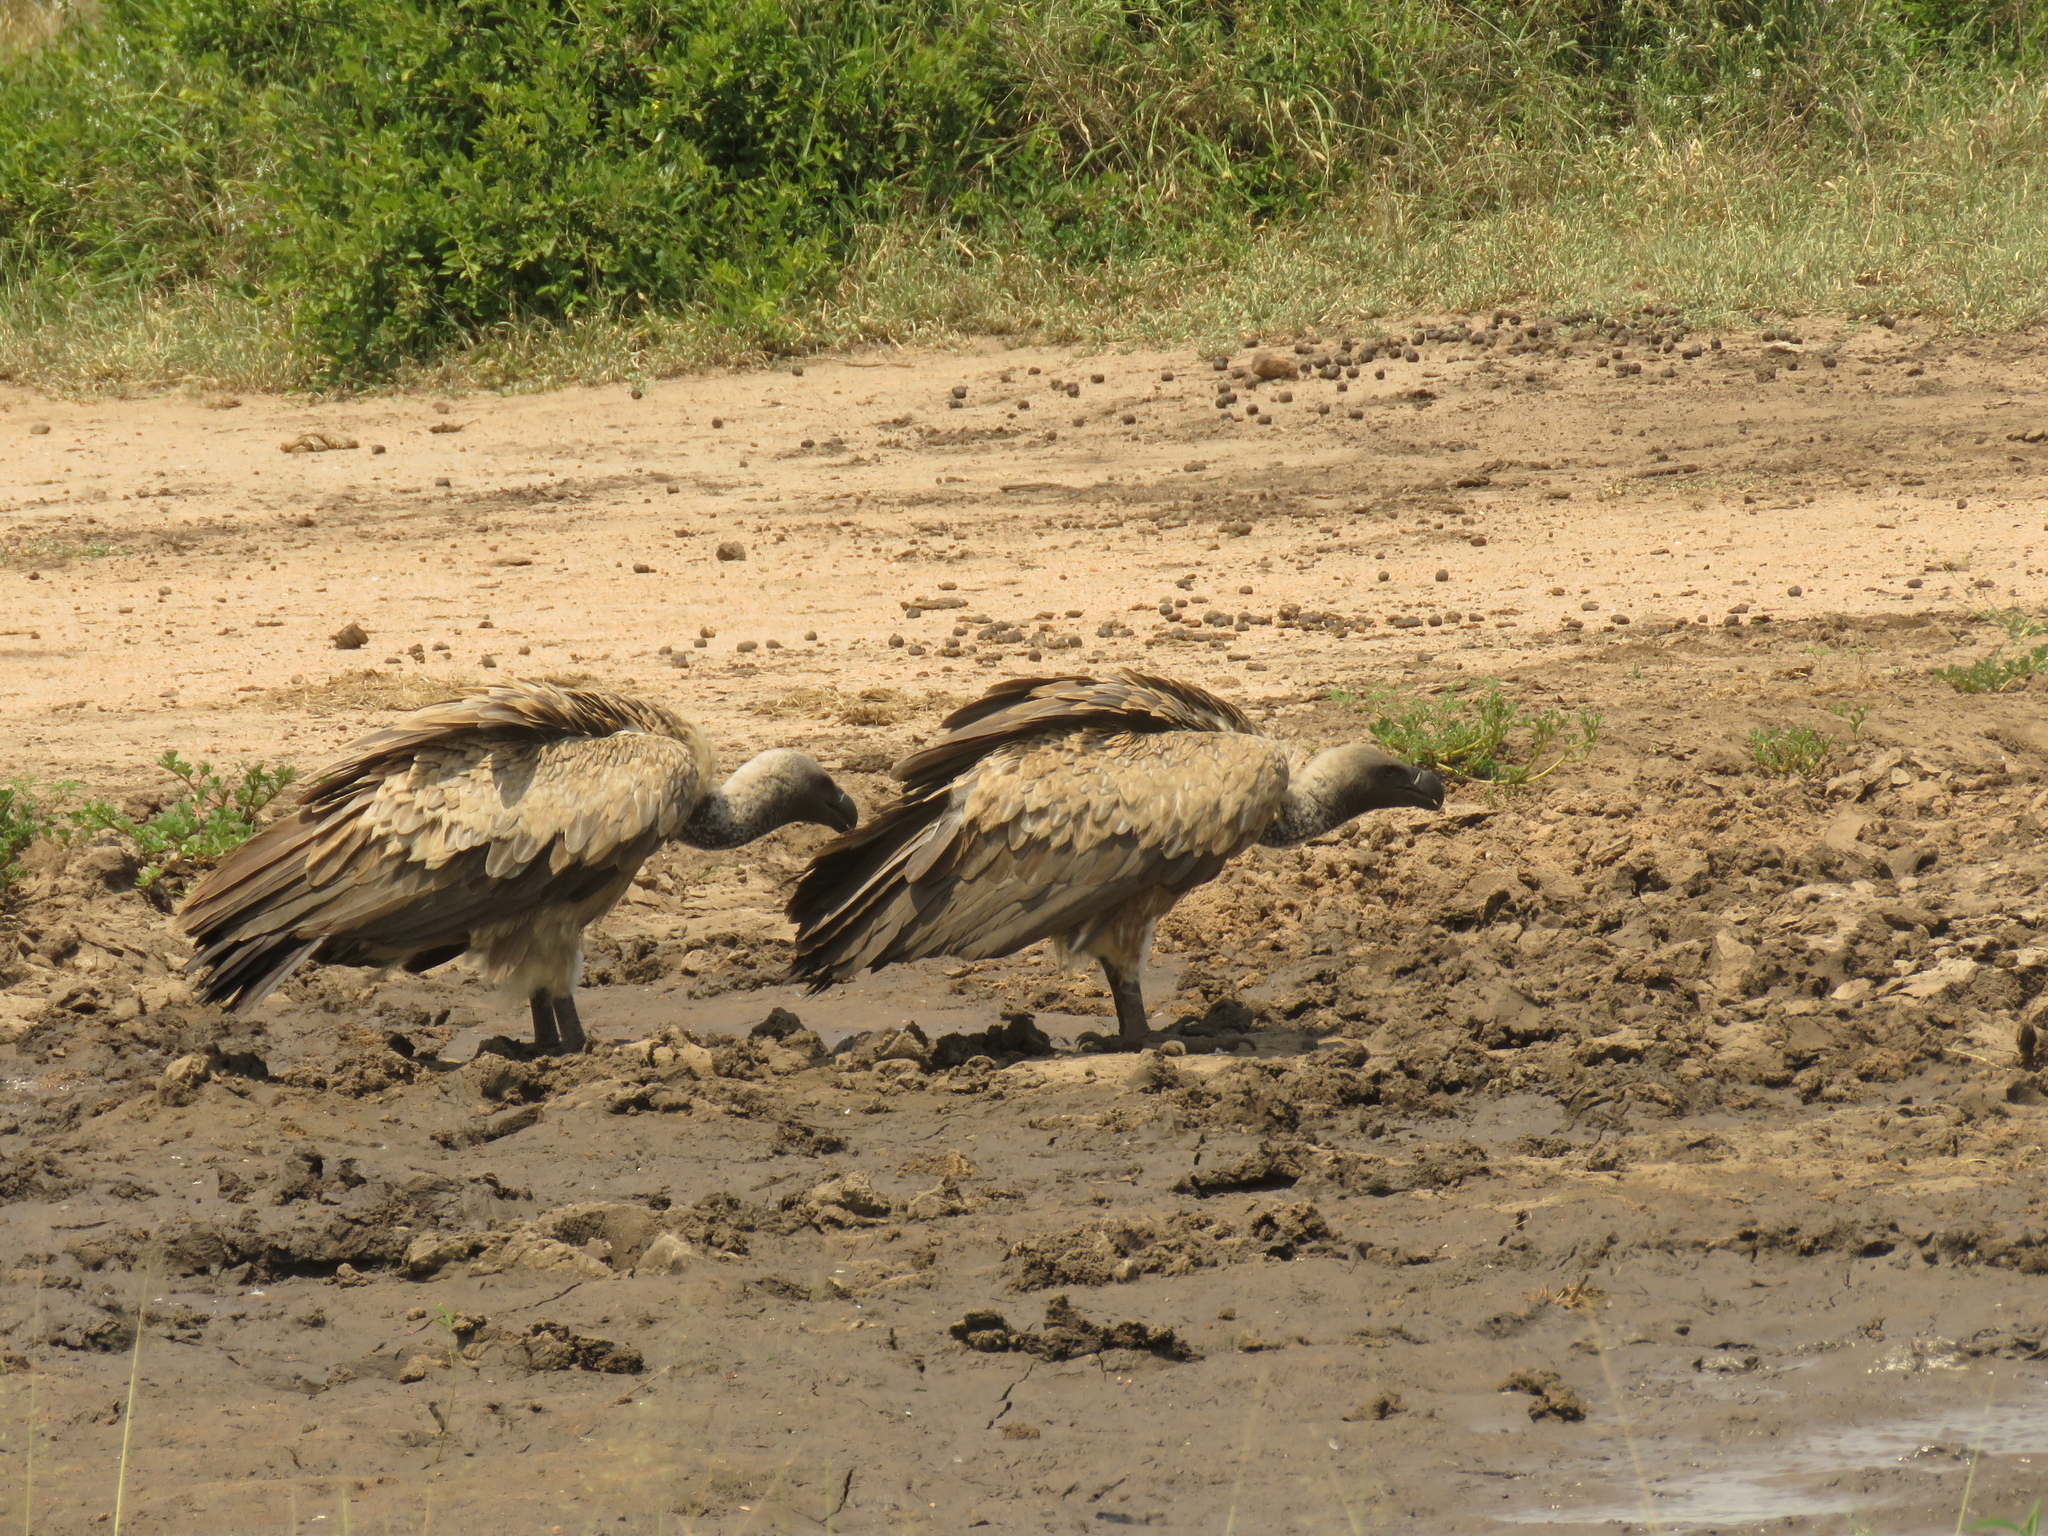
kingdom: Animalia
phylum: Chordata
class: Aves
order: Accipitriformes
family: Accipitridae
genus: Gyps
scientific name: Gyps africanus
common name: White-backed vulture
